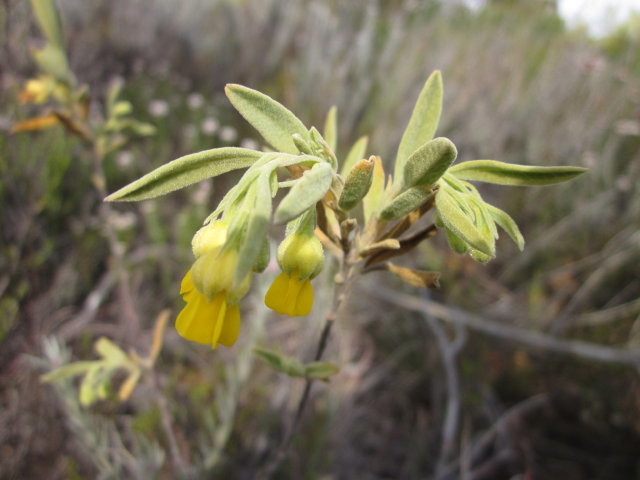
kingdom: Plantae
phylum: Tracheophyta
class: Magnoliopsida
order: Malvales
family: Malvaceae
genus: Hermannia
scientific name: Hermannia odorata
